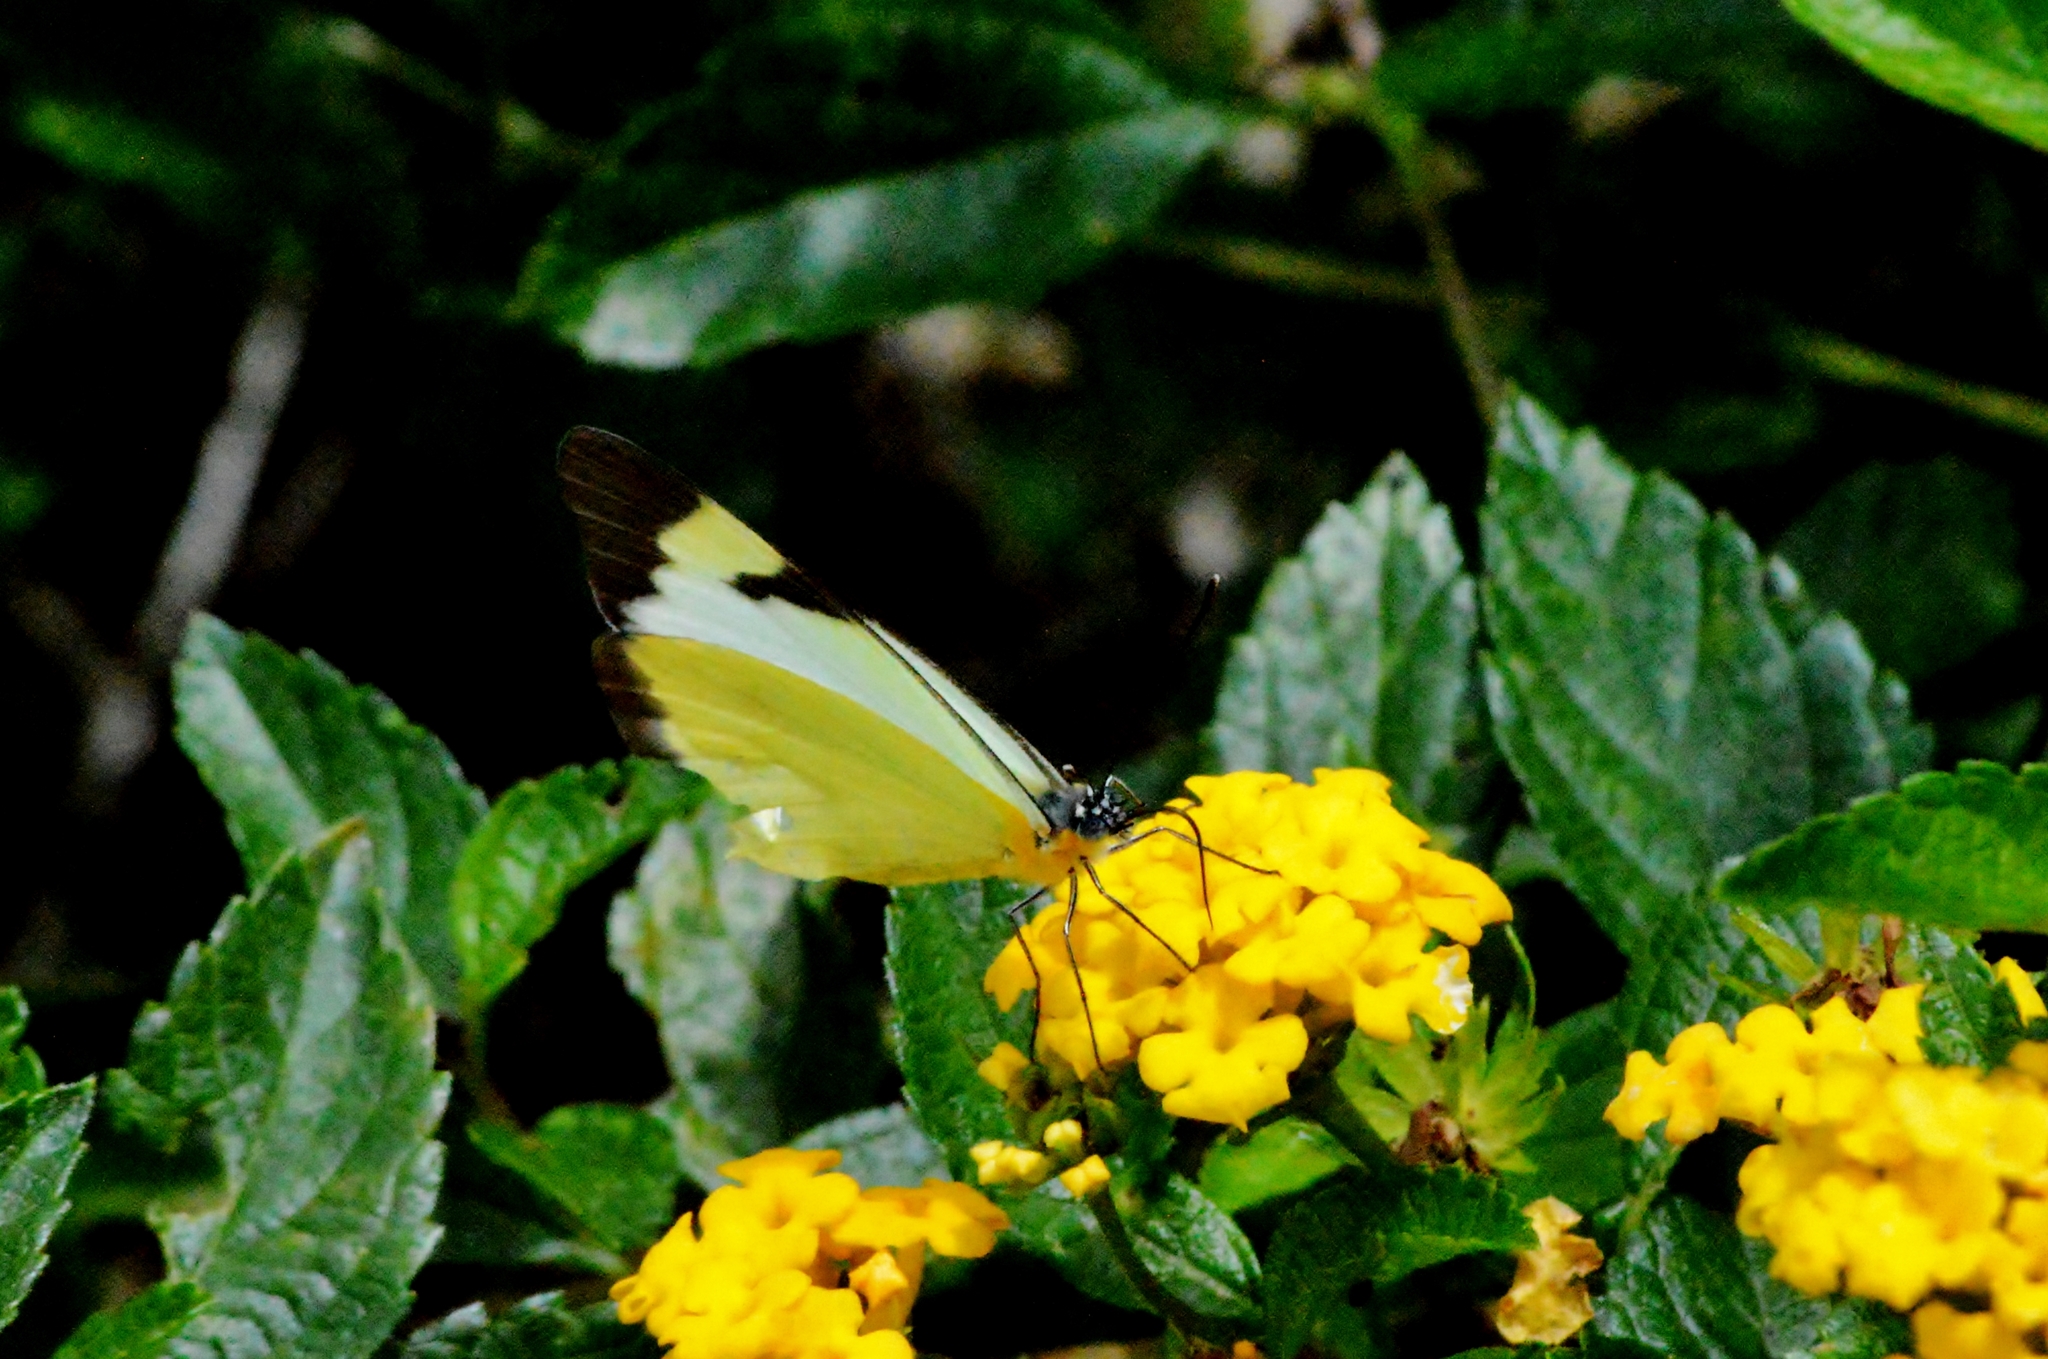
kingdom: Animalia
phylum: Arthropoda
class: Insecta
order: Lepidoptera
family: Pieridae
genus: Melete
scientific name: Melete lycimnia
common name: Common melwhite
